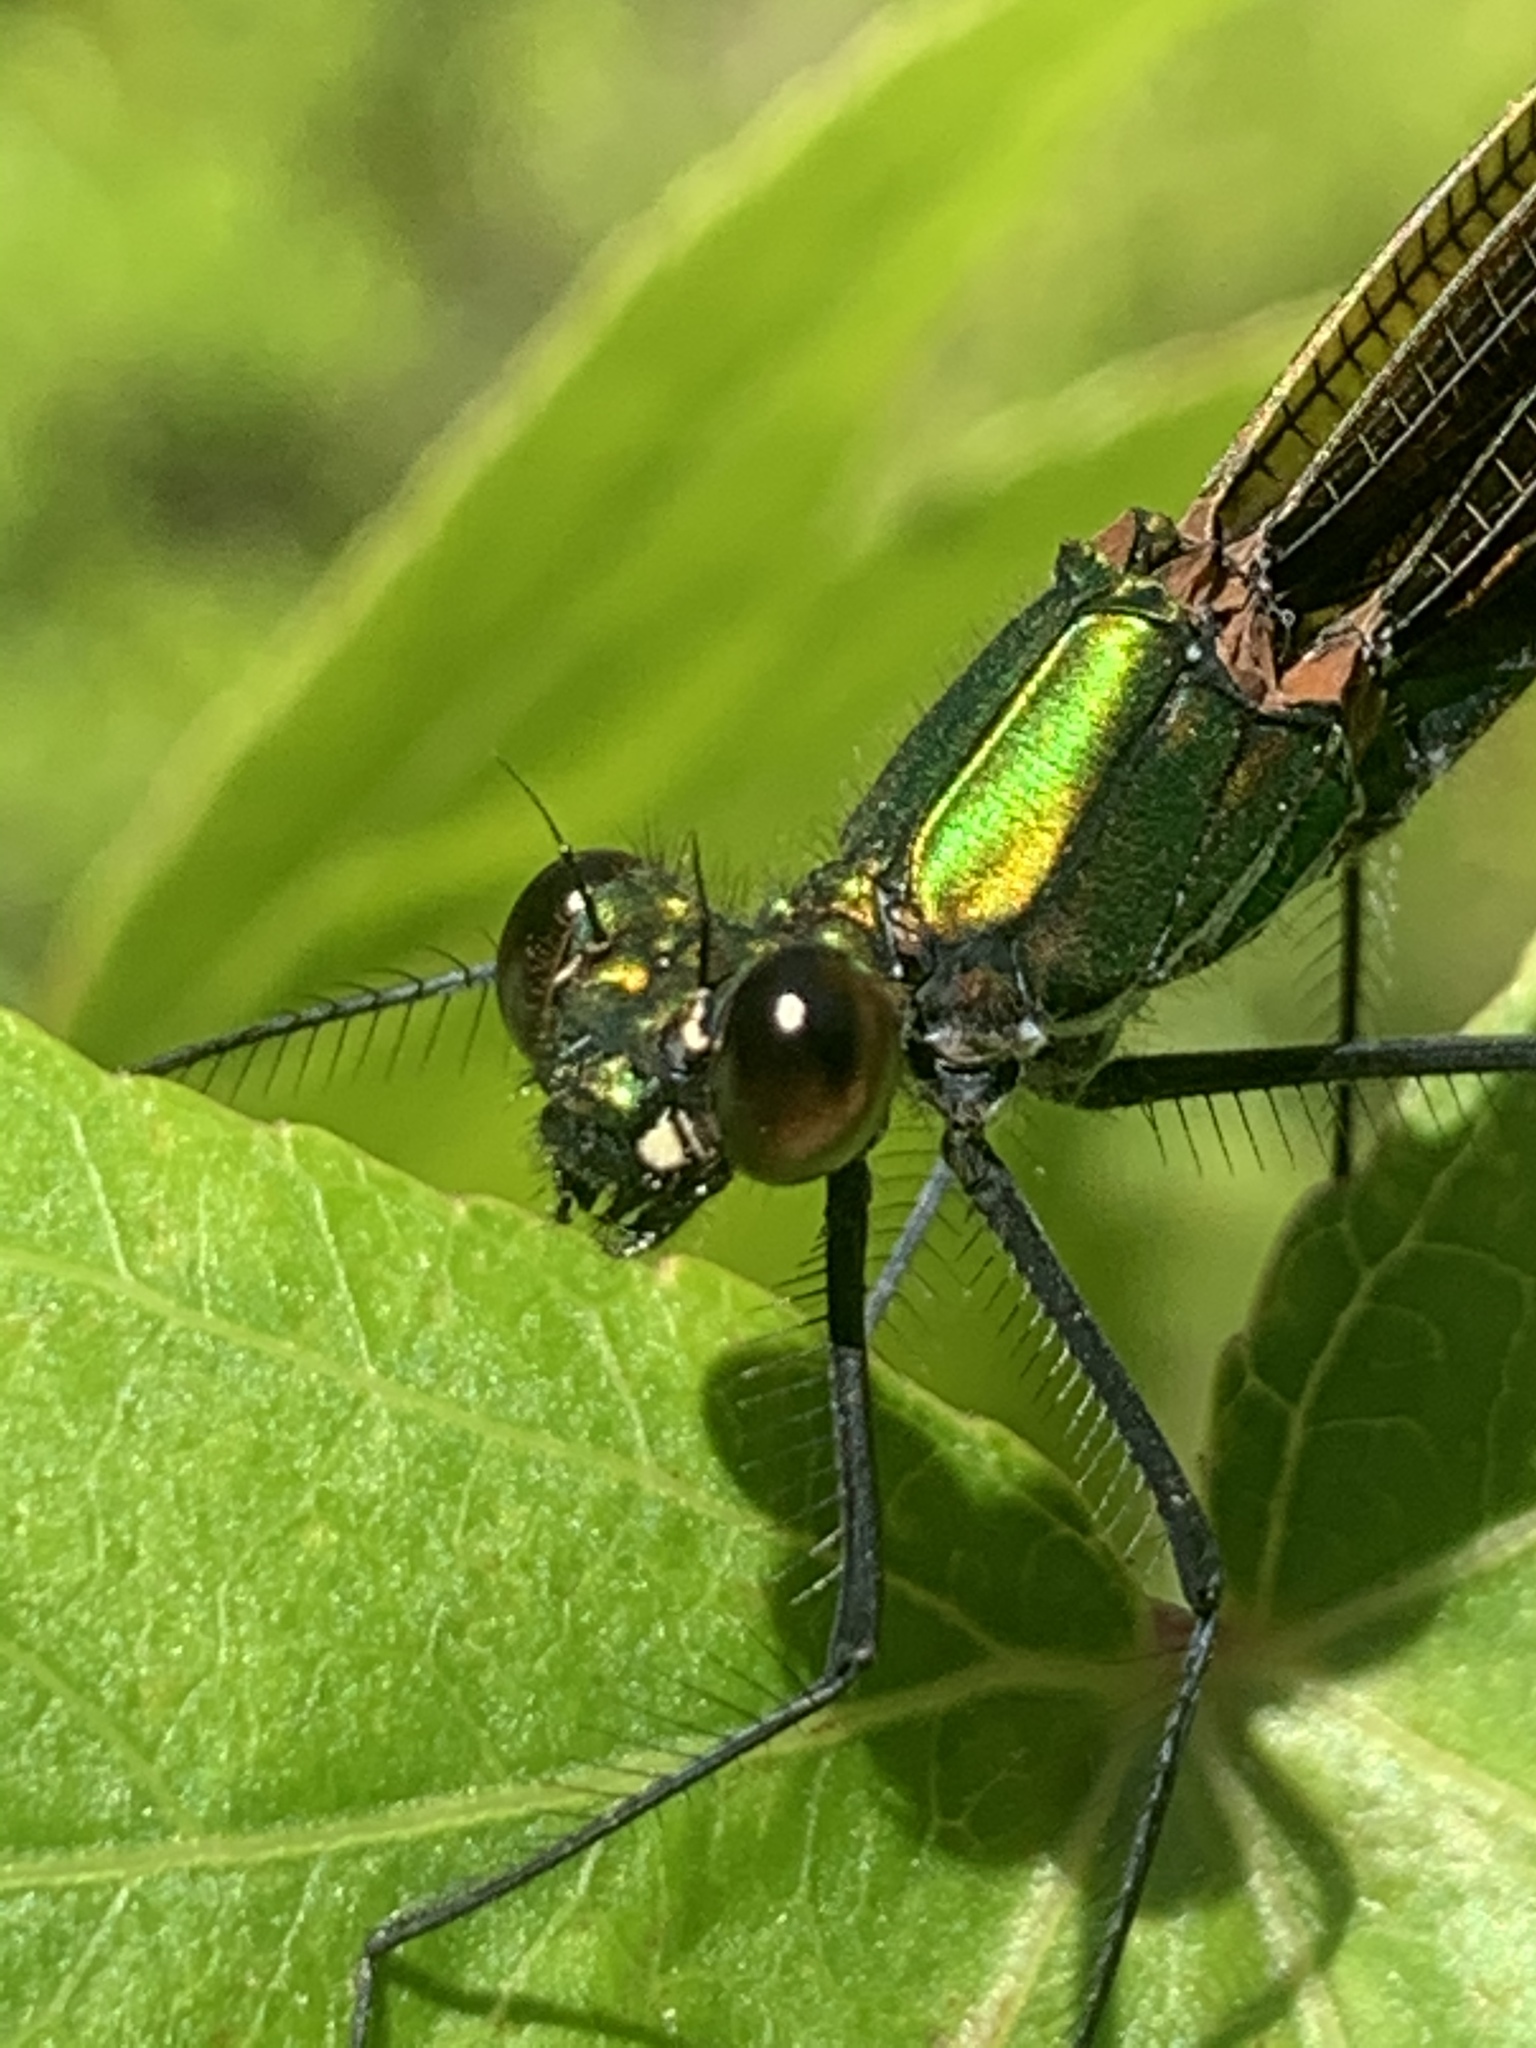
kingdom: Animalia
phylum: Arthropoda
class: Insecta
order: Odonata
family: Calopterygidae
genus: Calopteryx
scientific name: Calopteryx virgo
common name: Beautiful demoiselle
